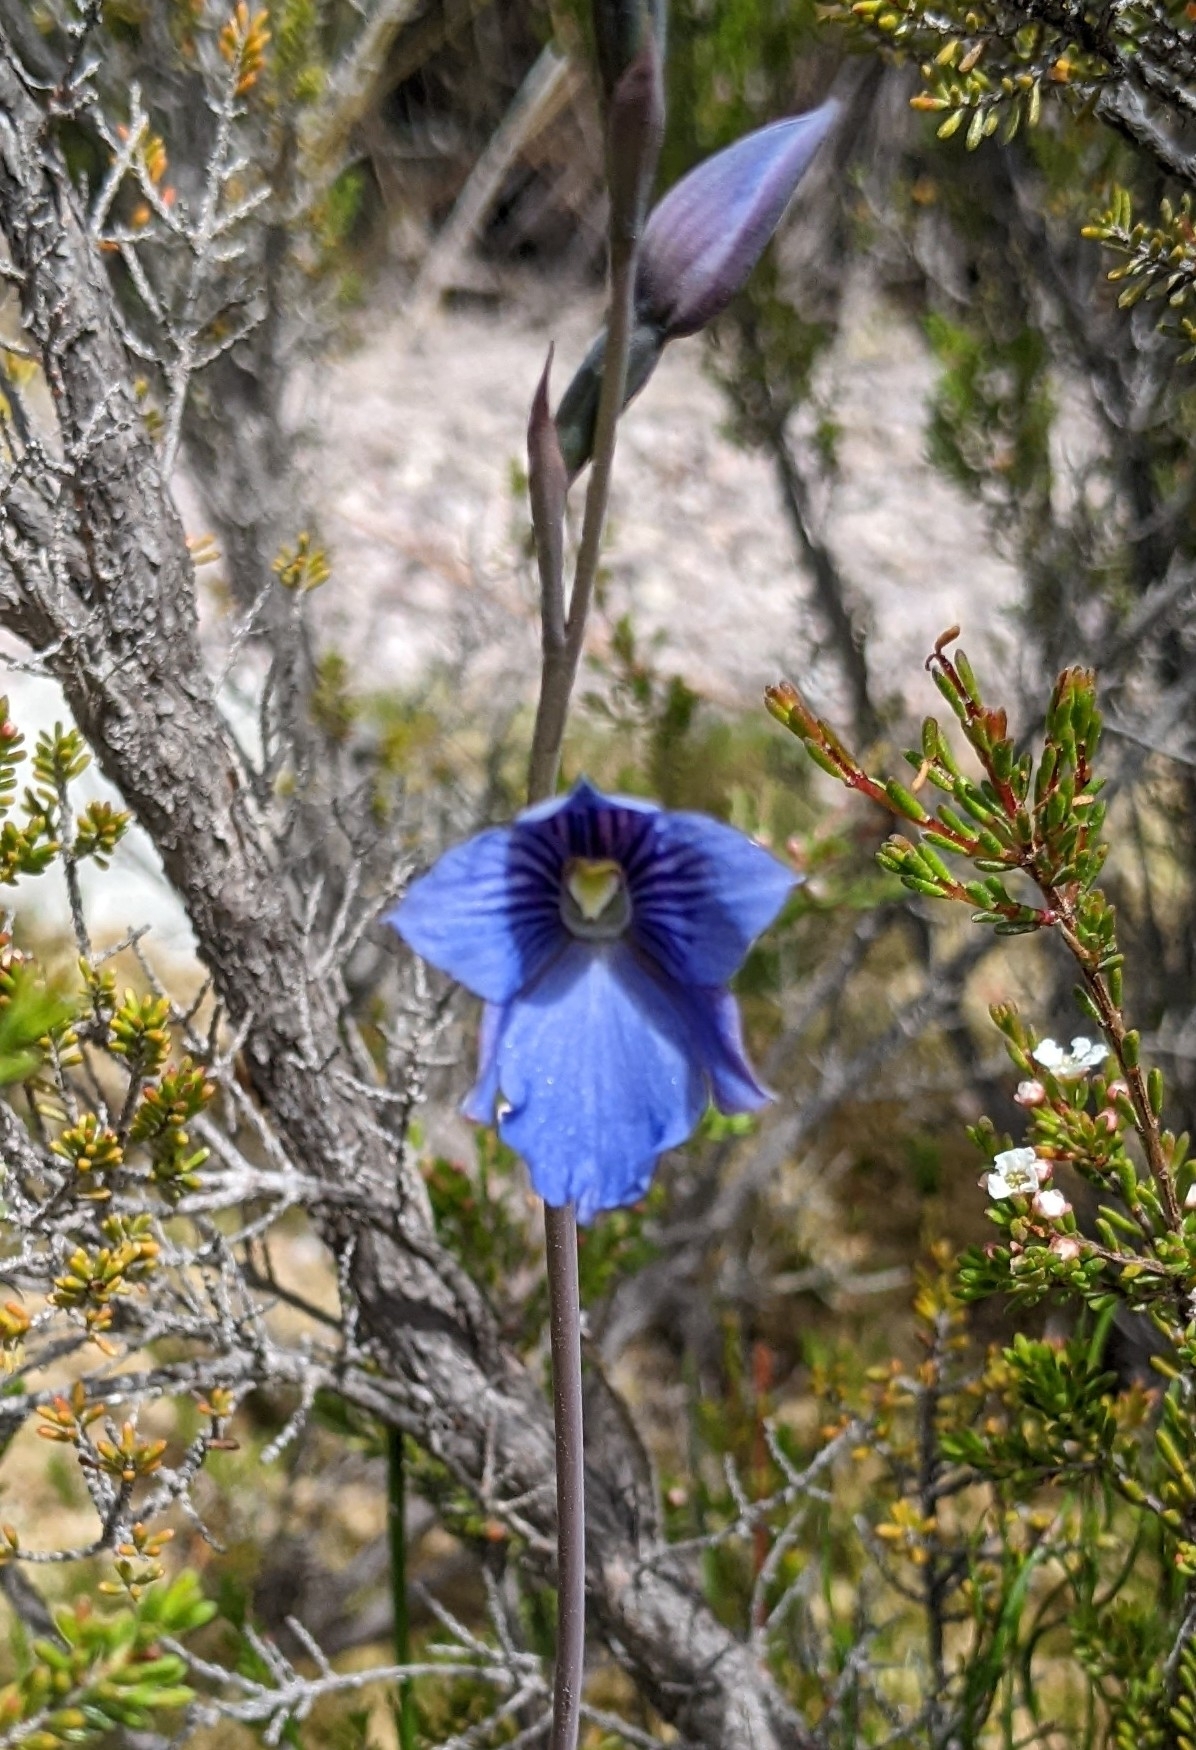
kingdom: Plantae
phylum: Tracheophyta
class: Liliopsida
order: Asparagales
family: Orchidaceae
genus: Thelymitra
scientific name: Thelymitra cyanea
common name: Blue sun-orchid
